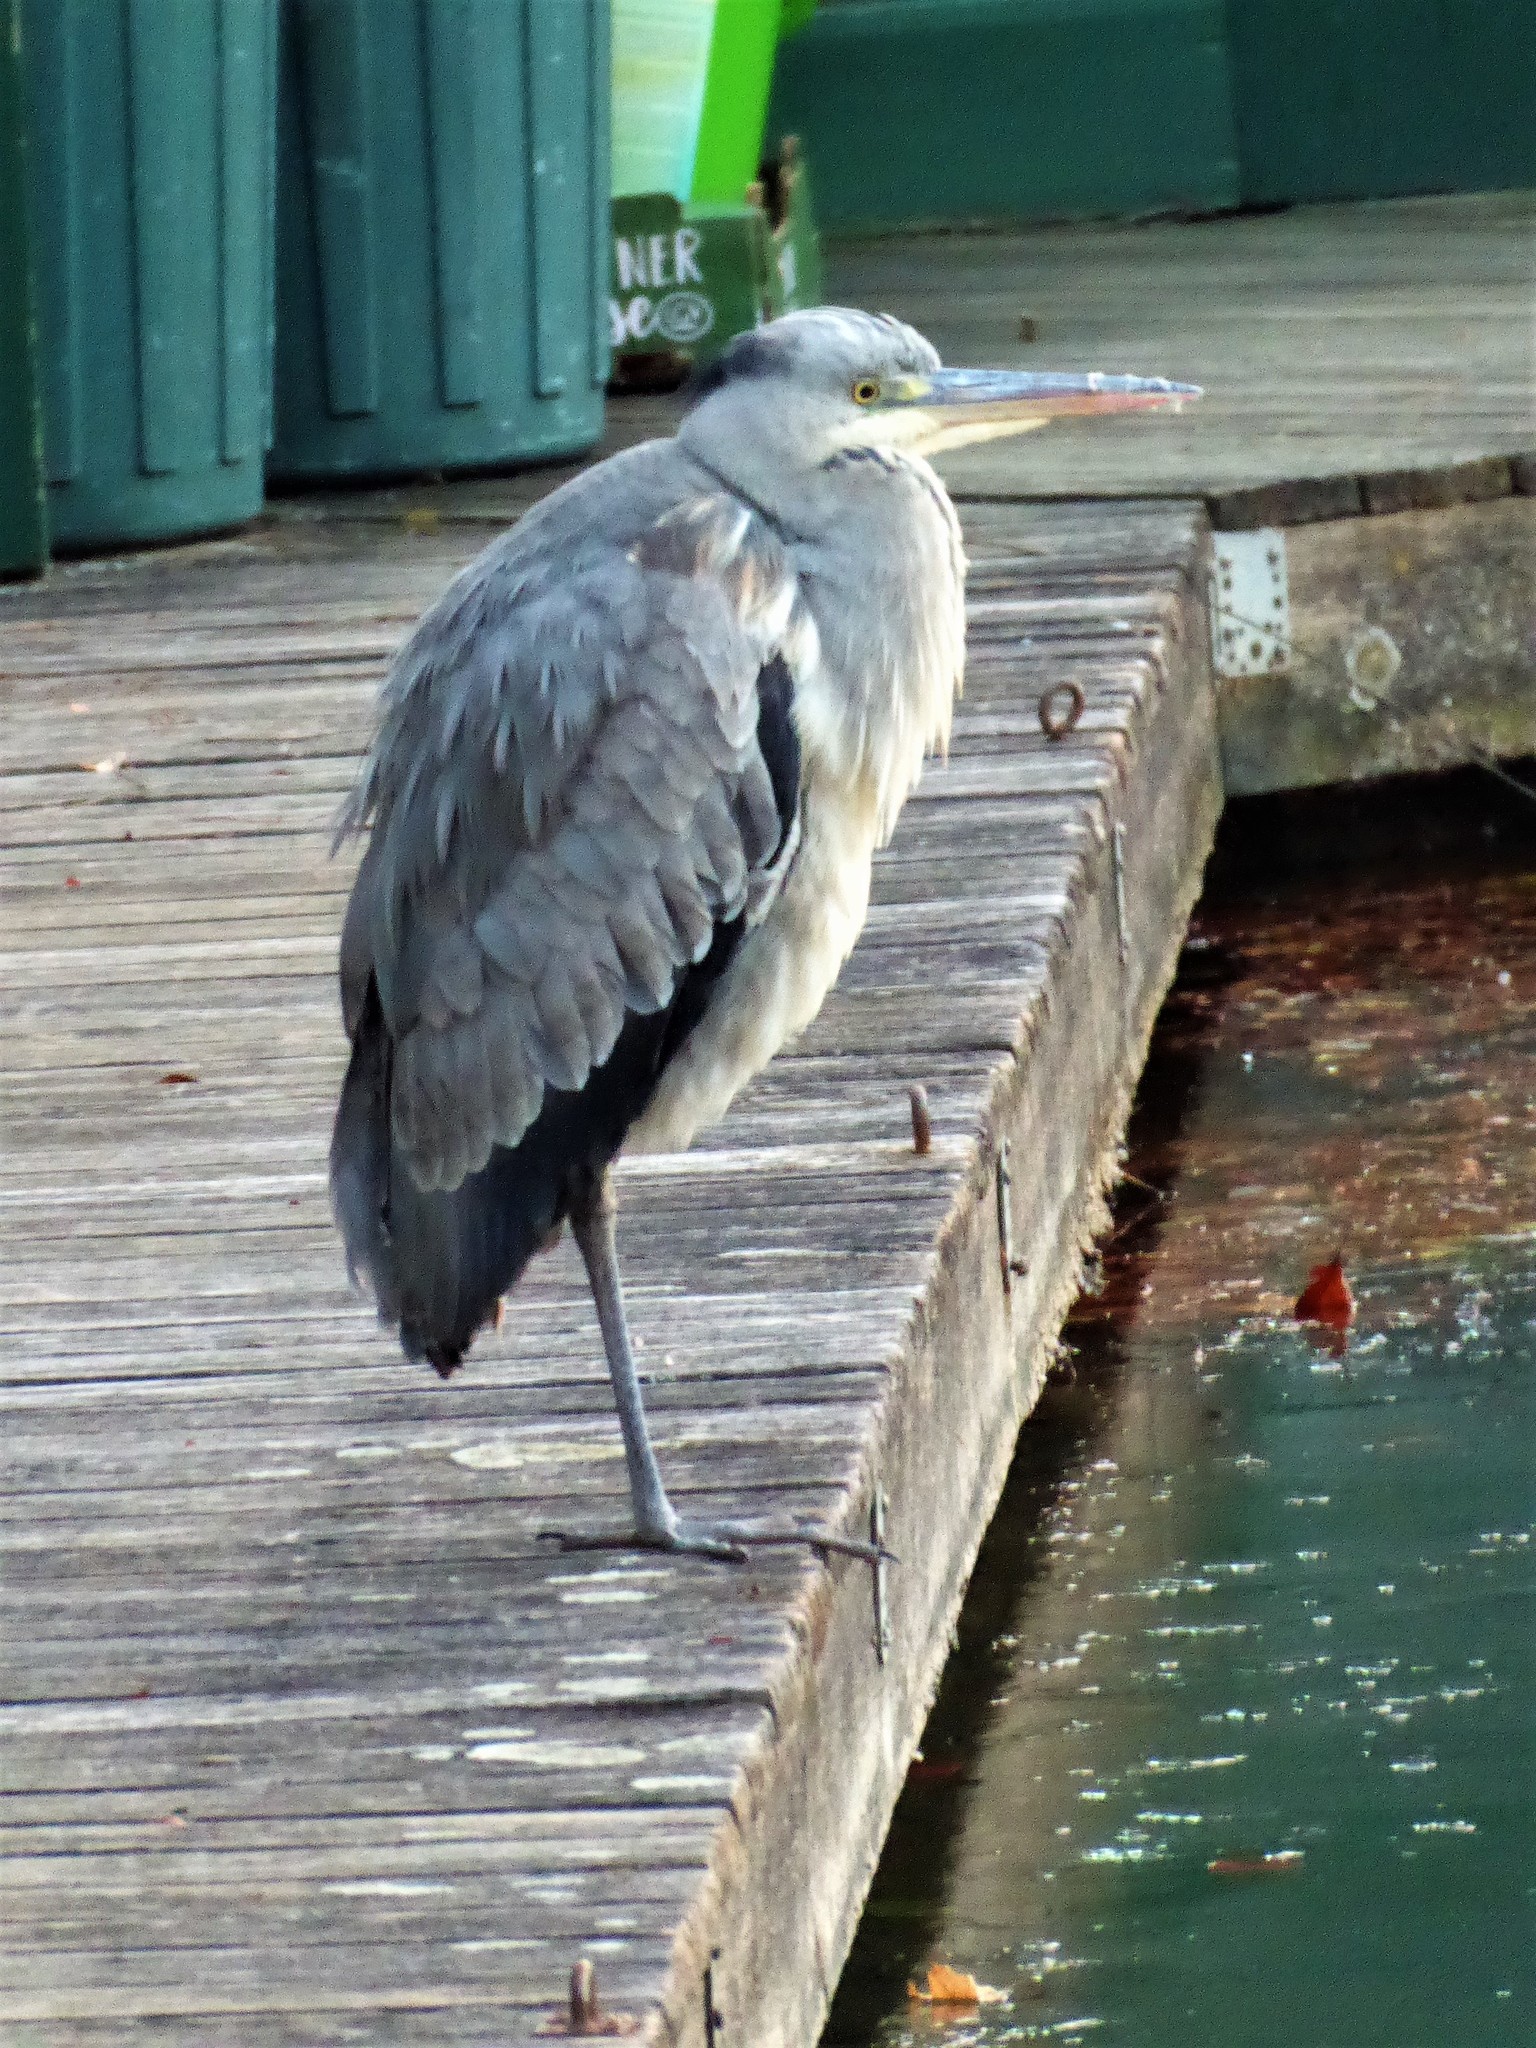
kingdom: Animalia
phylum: Chordata
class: Aves
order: Pelecaniformes
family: Ardeidae
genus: Ardea
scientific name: Ardea cinerea
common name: Grey heron
